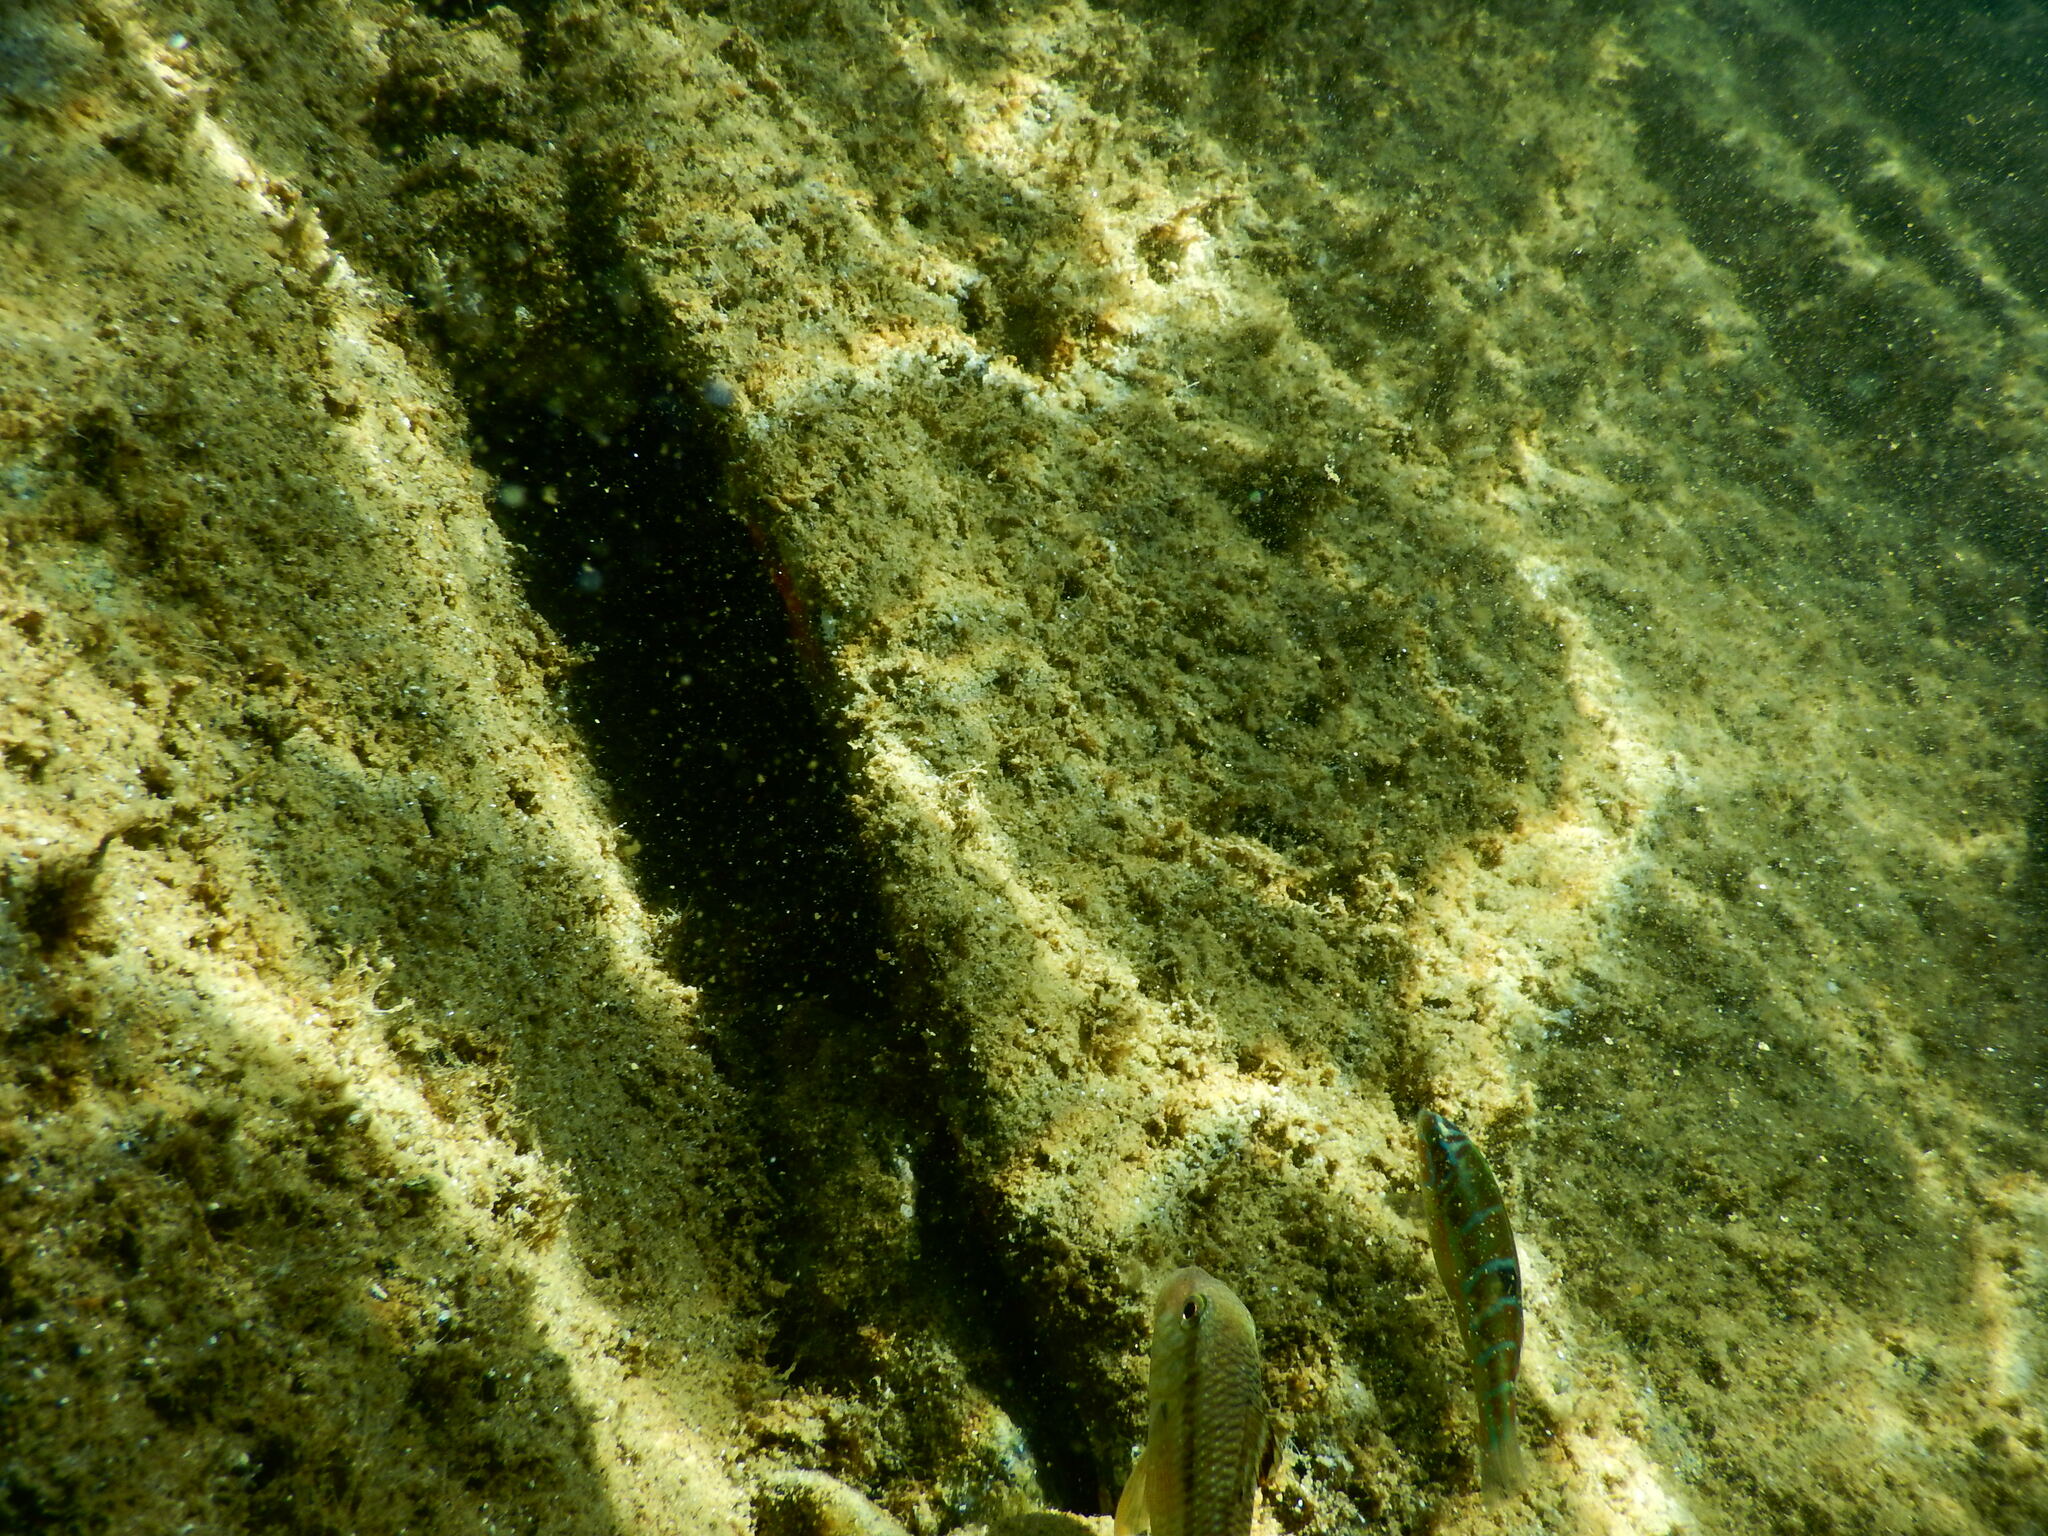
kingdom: Animalia
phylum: Chordata
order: Perciformes
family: Mullidae
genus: Mullus
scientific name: Mullus surmuletus
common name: Red mullet
